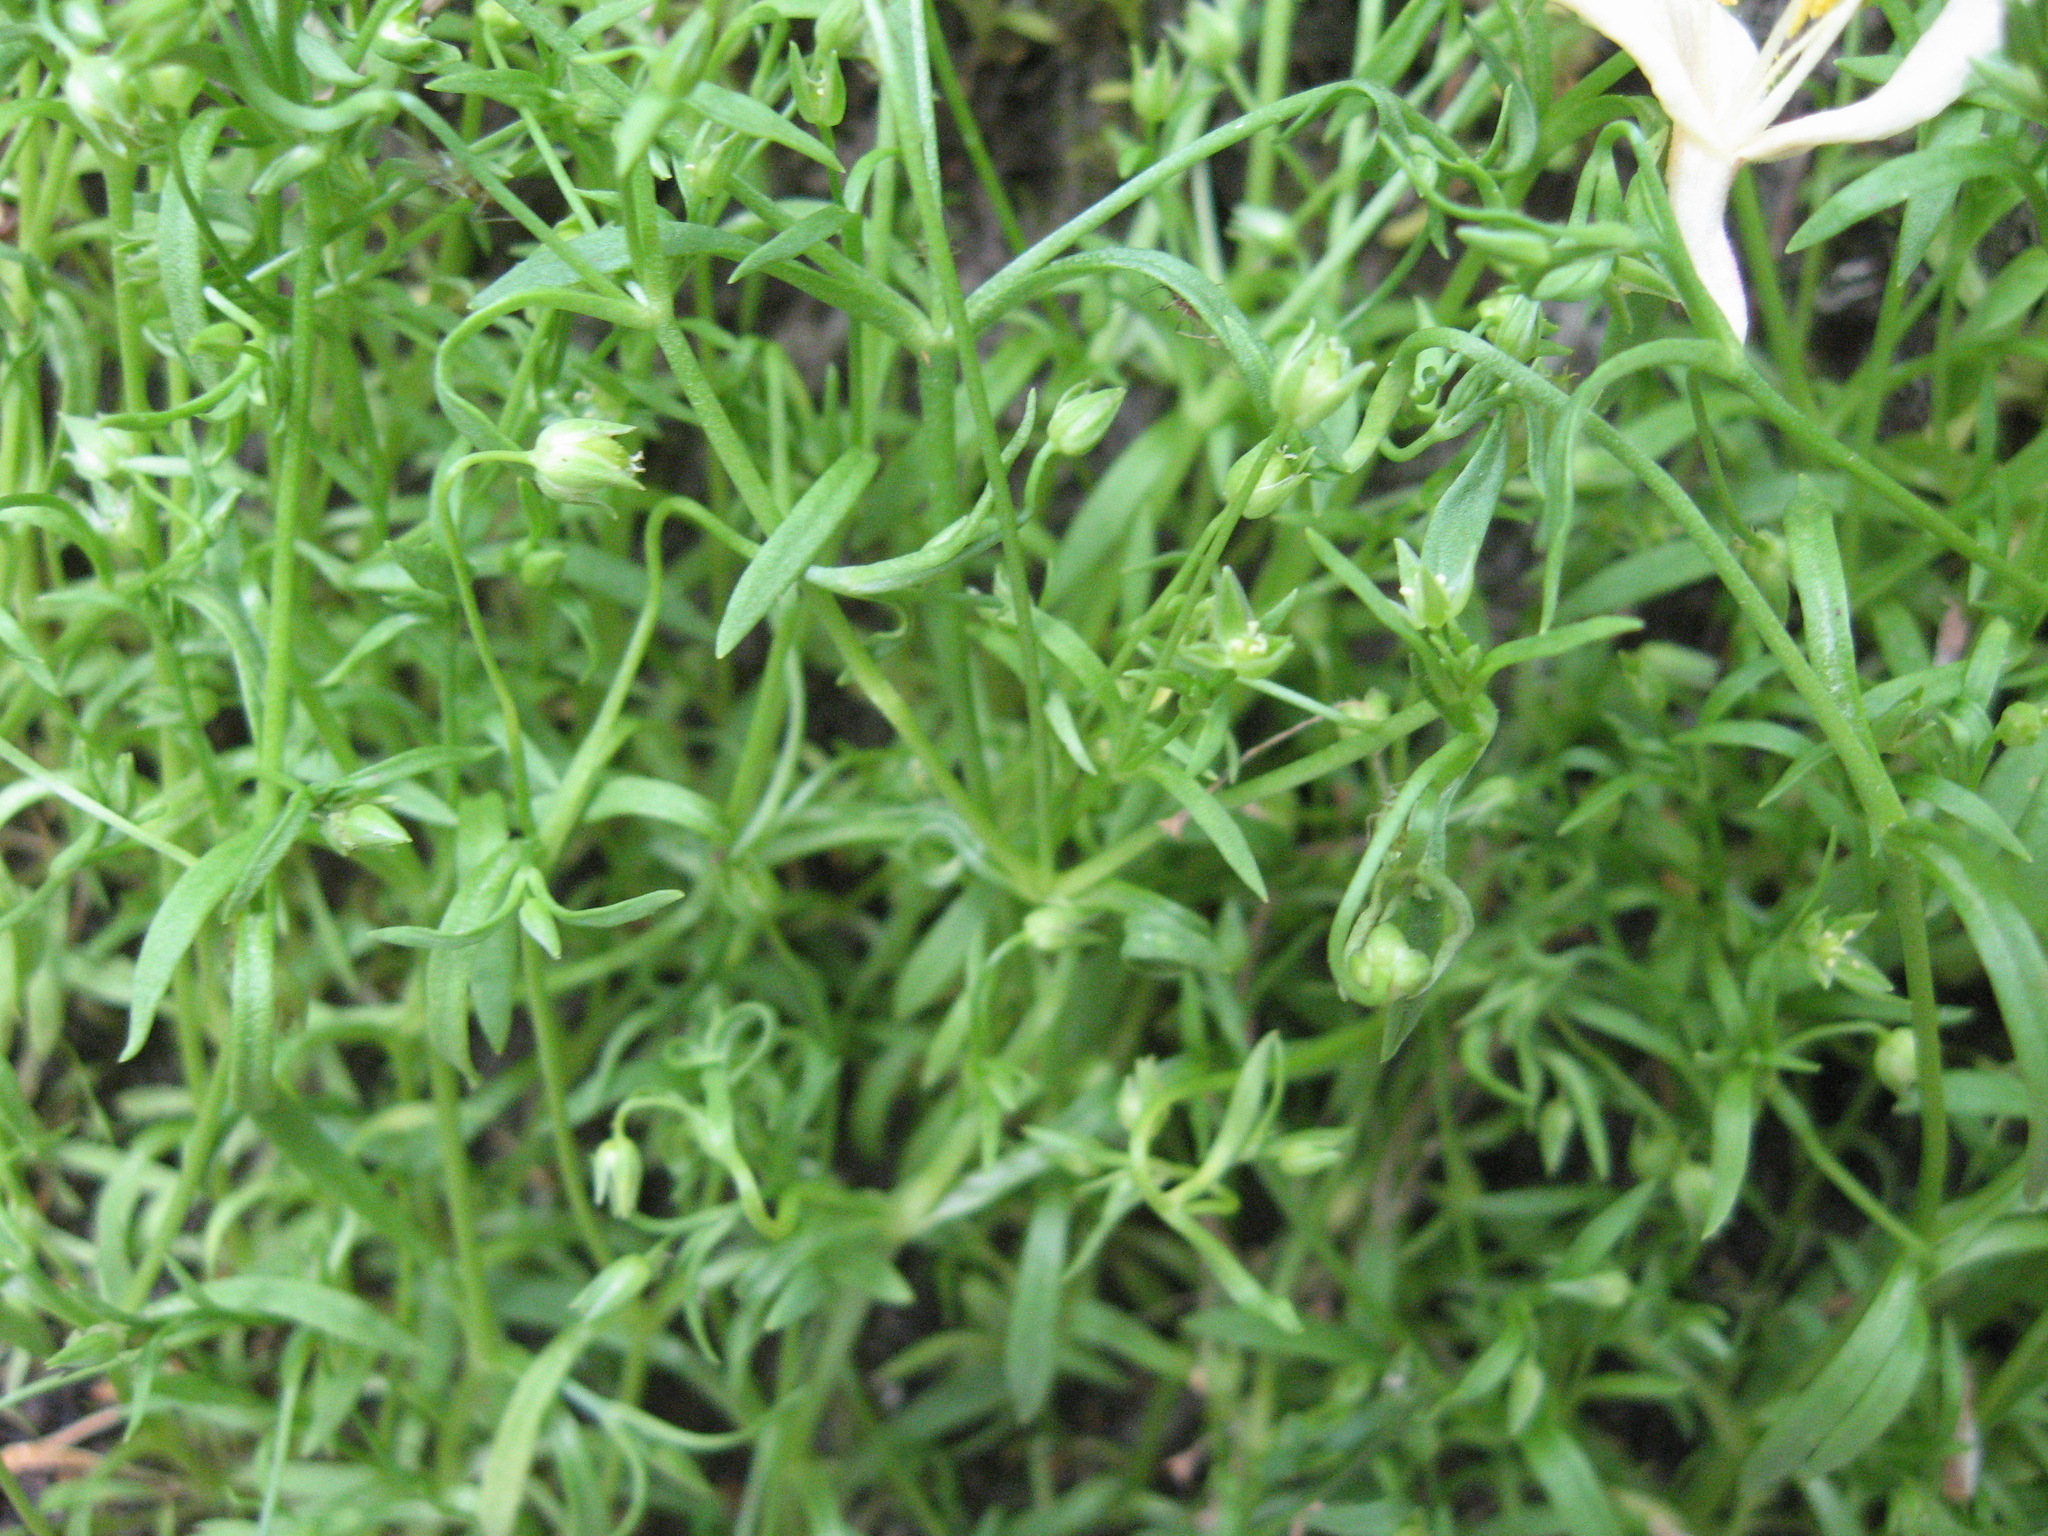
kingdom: Plantae
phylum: Tracheophyta
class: Magnoliopsida
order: Caryophyllales
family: Caryophyllaceae
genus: Sabulina
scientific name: Sabulina fontinalis
